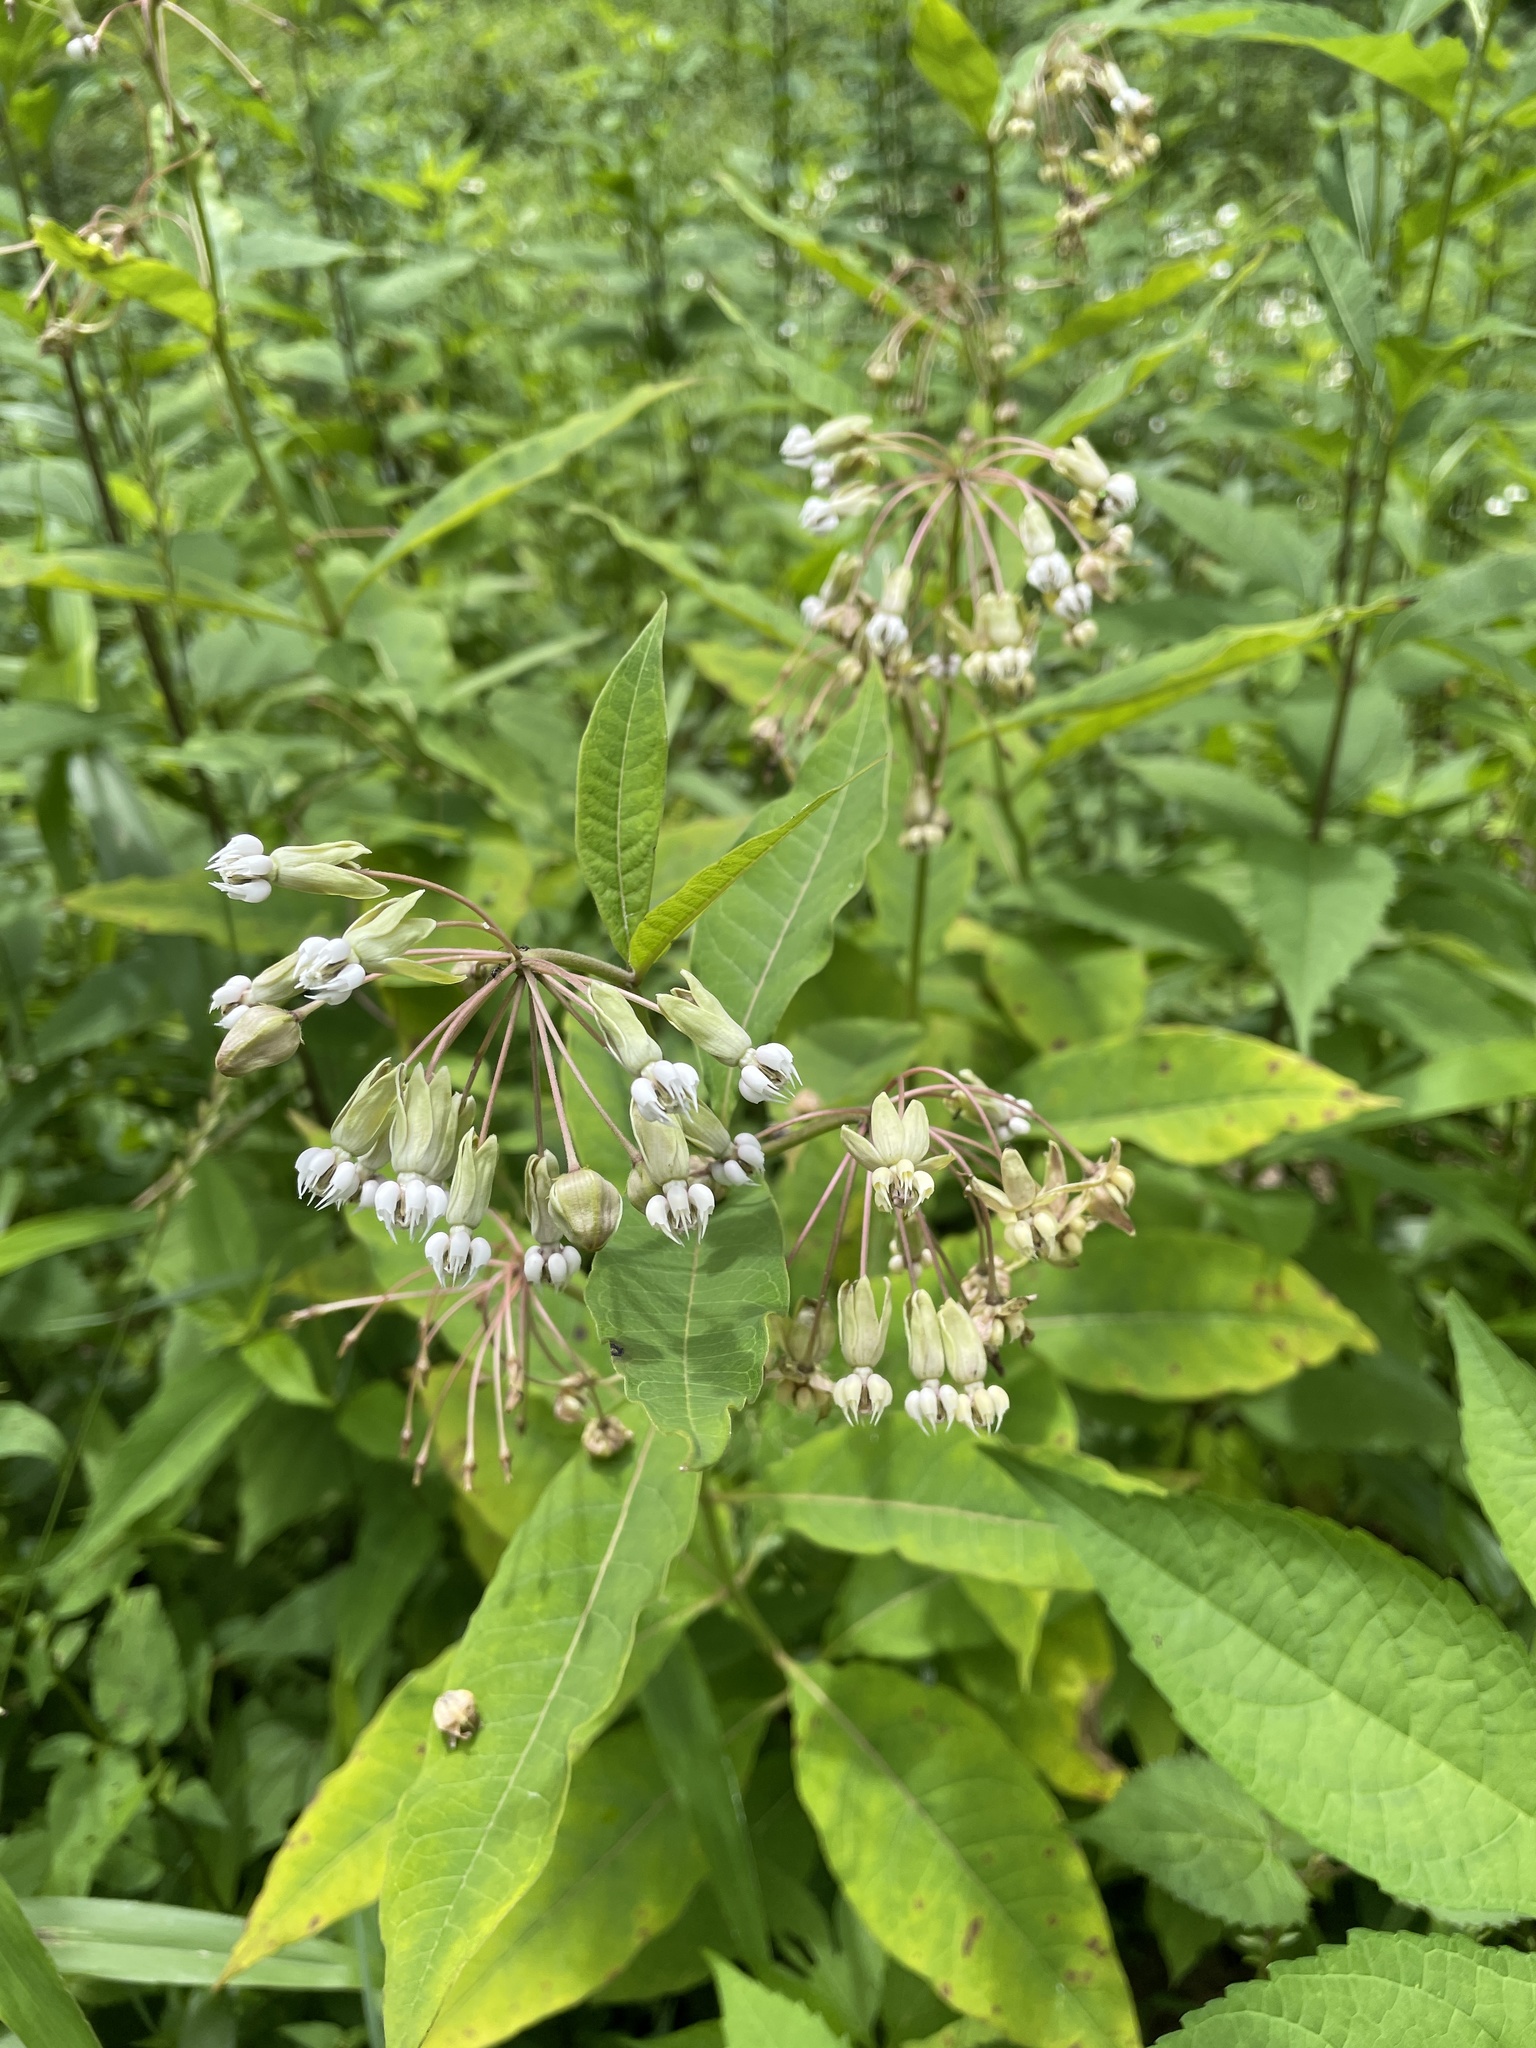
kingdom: Plantae
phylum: Tracheophyta
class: Magnoliopsida
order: Gentianales
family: Apocynaceae
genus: Asclepias
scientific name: Asclepias exaltata
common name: Poke milkweed
